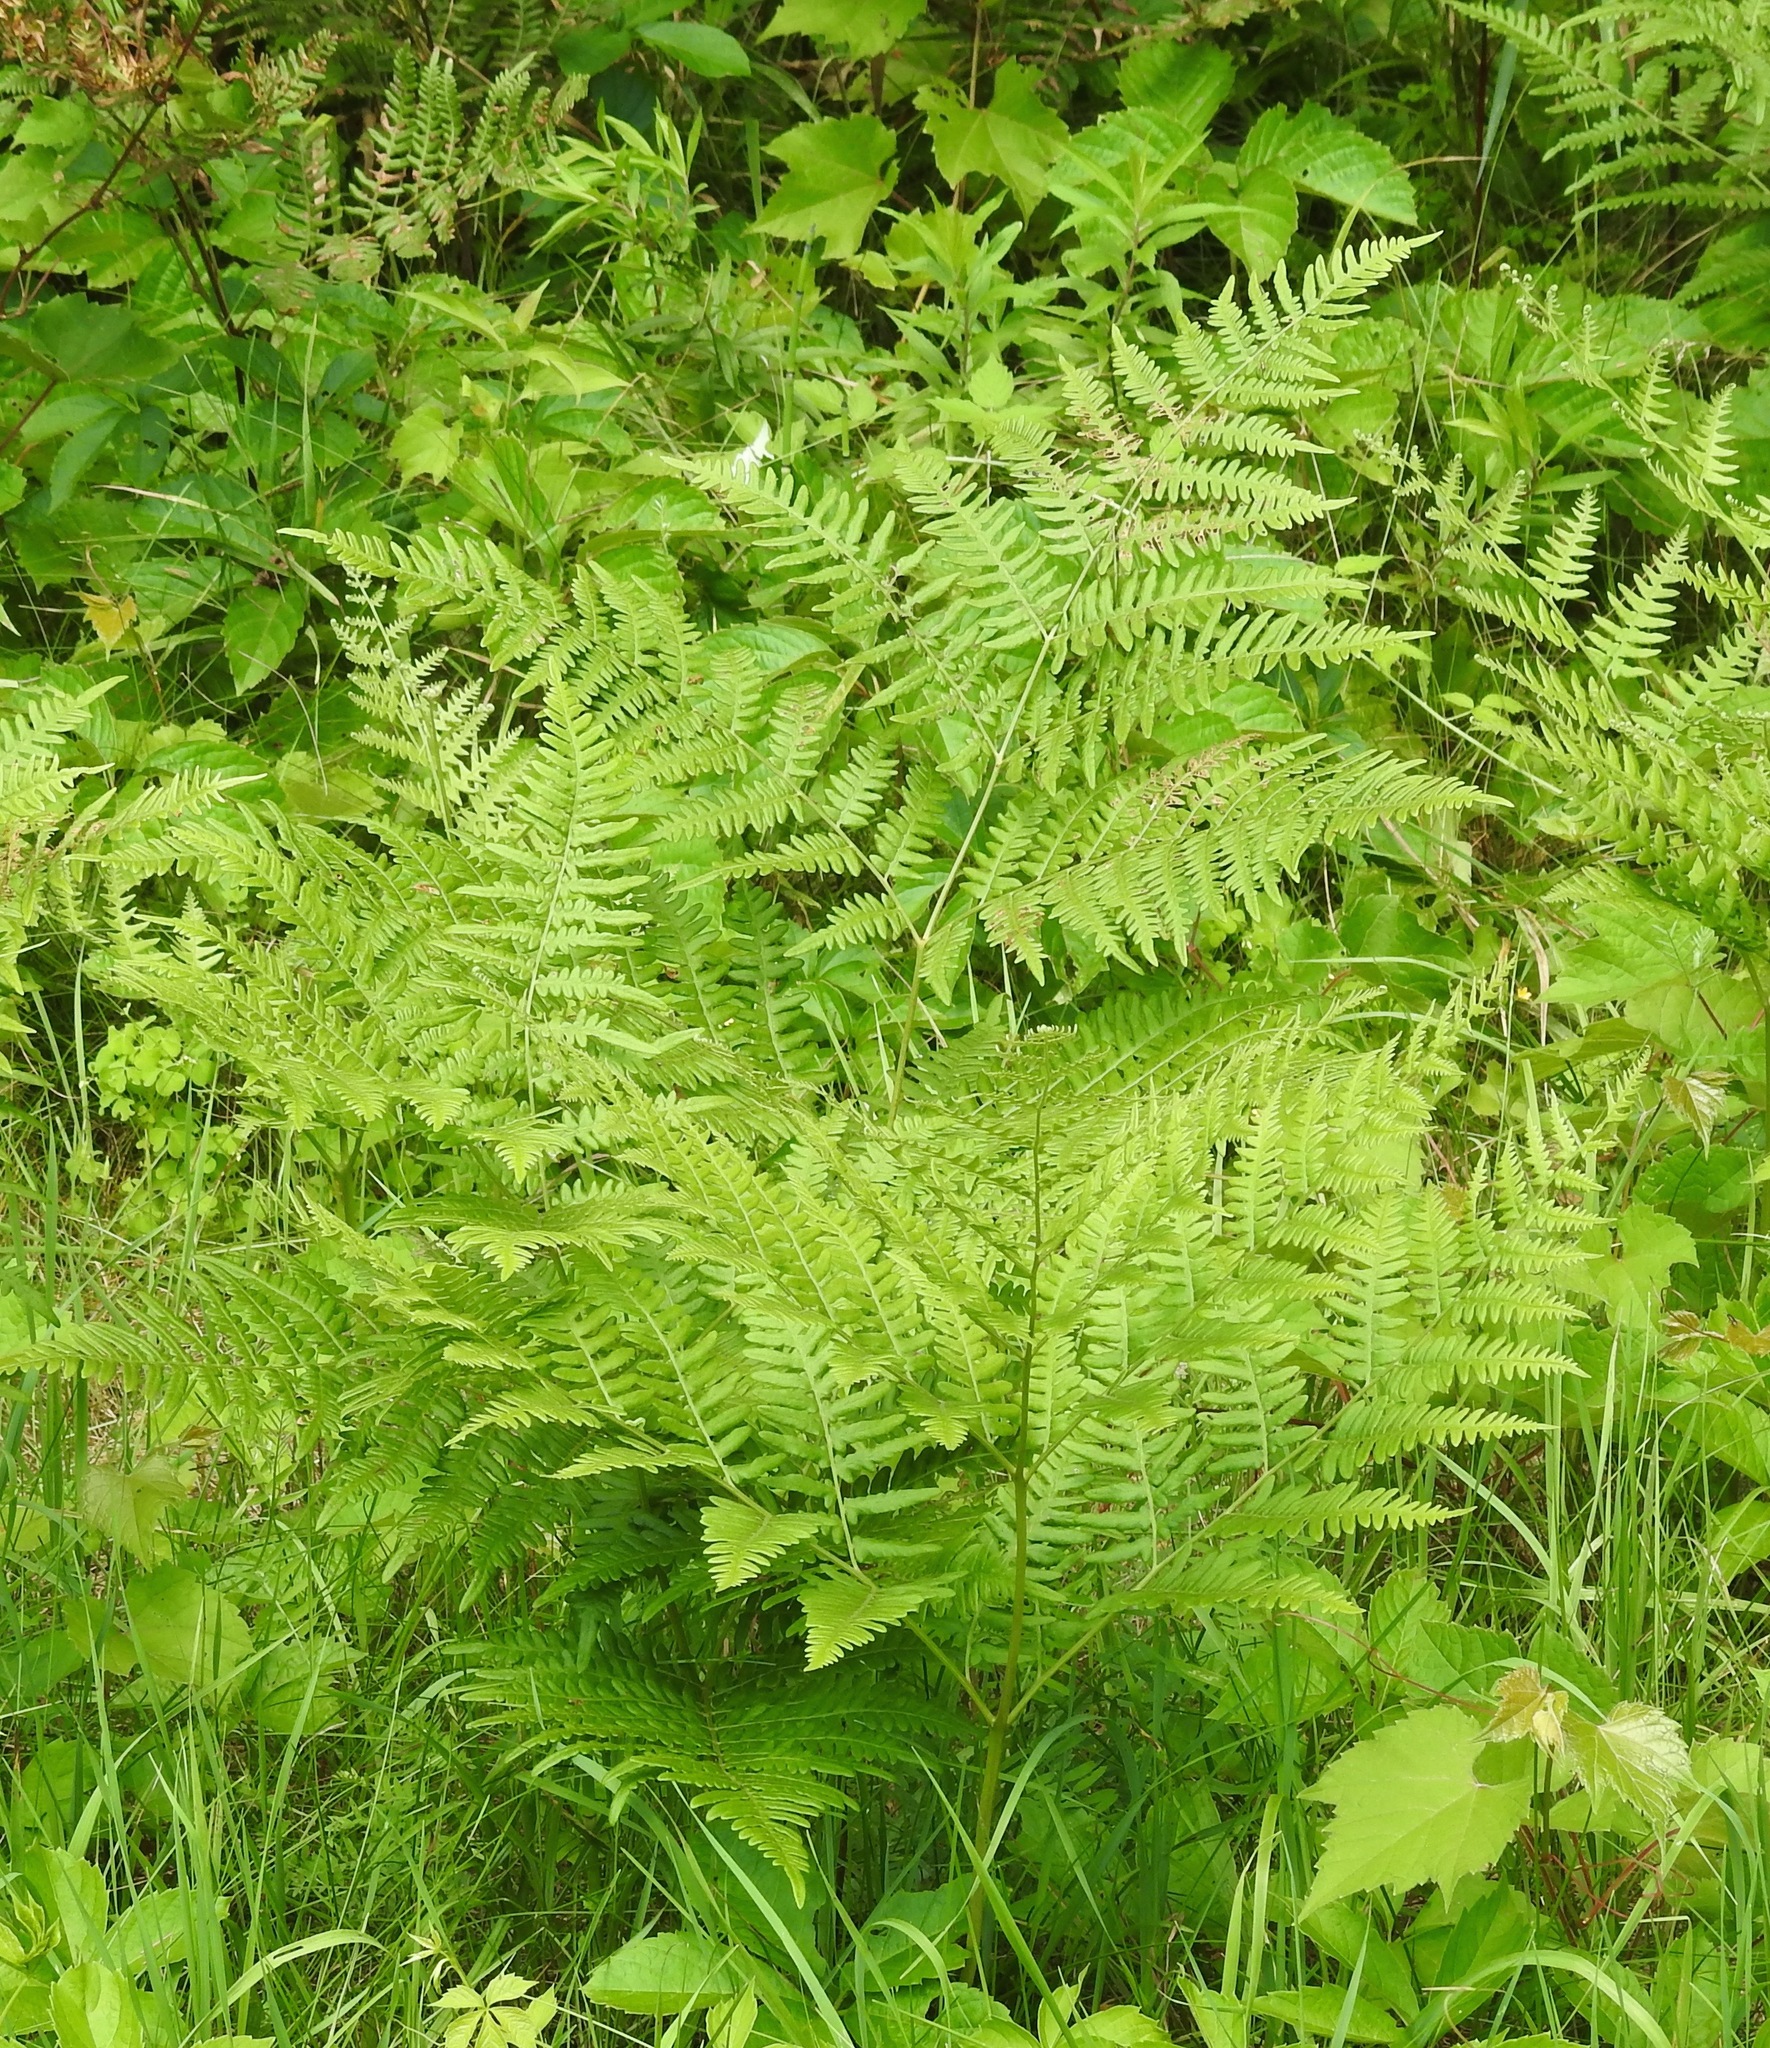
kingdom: Plantae
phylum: Tracheophyta
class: Polypodiopsida
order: Polypodiales
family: Dennstaedtiaceae
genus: Pteridium
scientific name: Pteridium aquilinum
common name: Bracken
